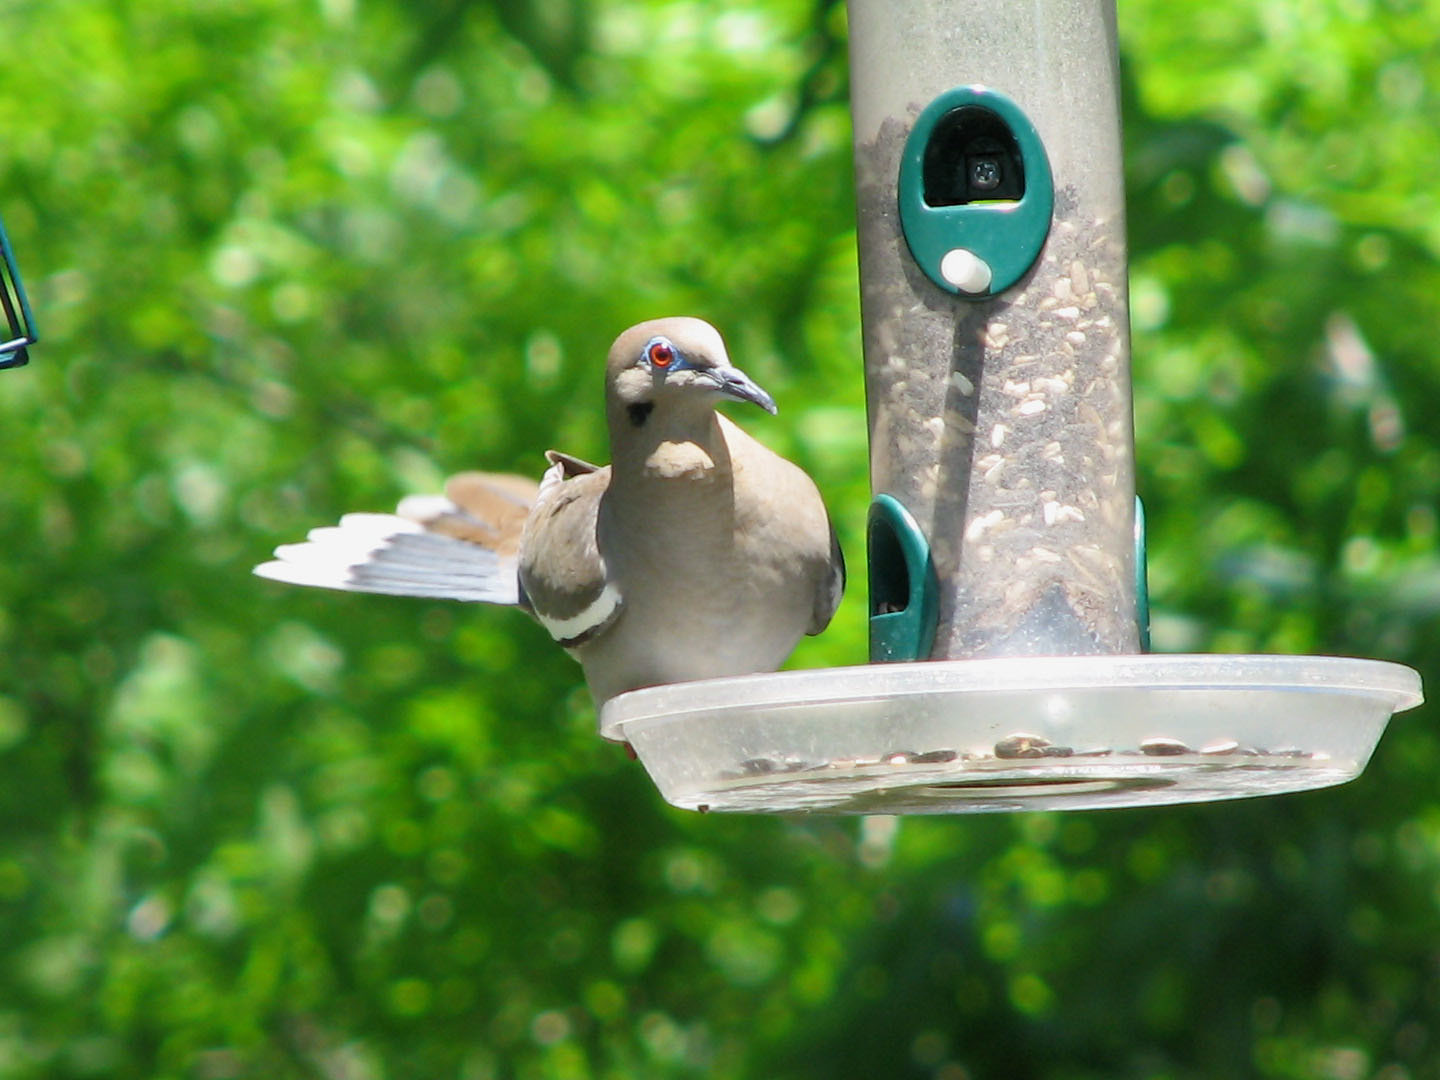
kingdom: Animalia
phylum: Chordata
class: Aves
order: Columbiformes
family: Columbidae
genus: Zenaida
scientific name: Zenaida asiatica
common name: White-winged dove
